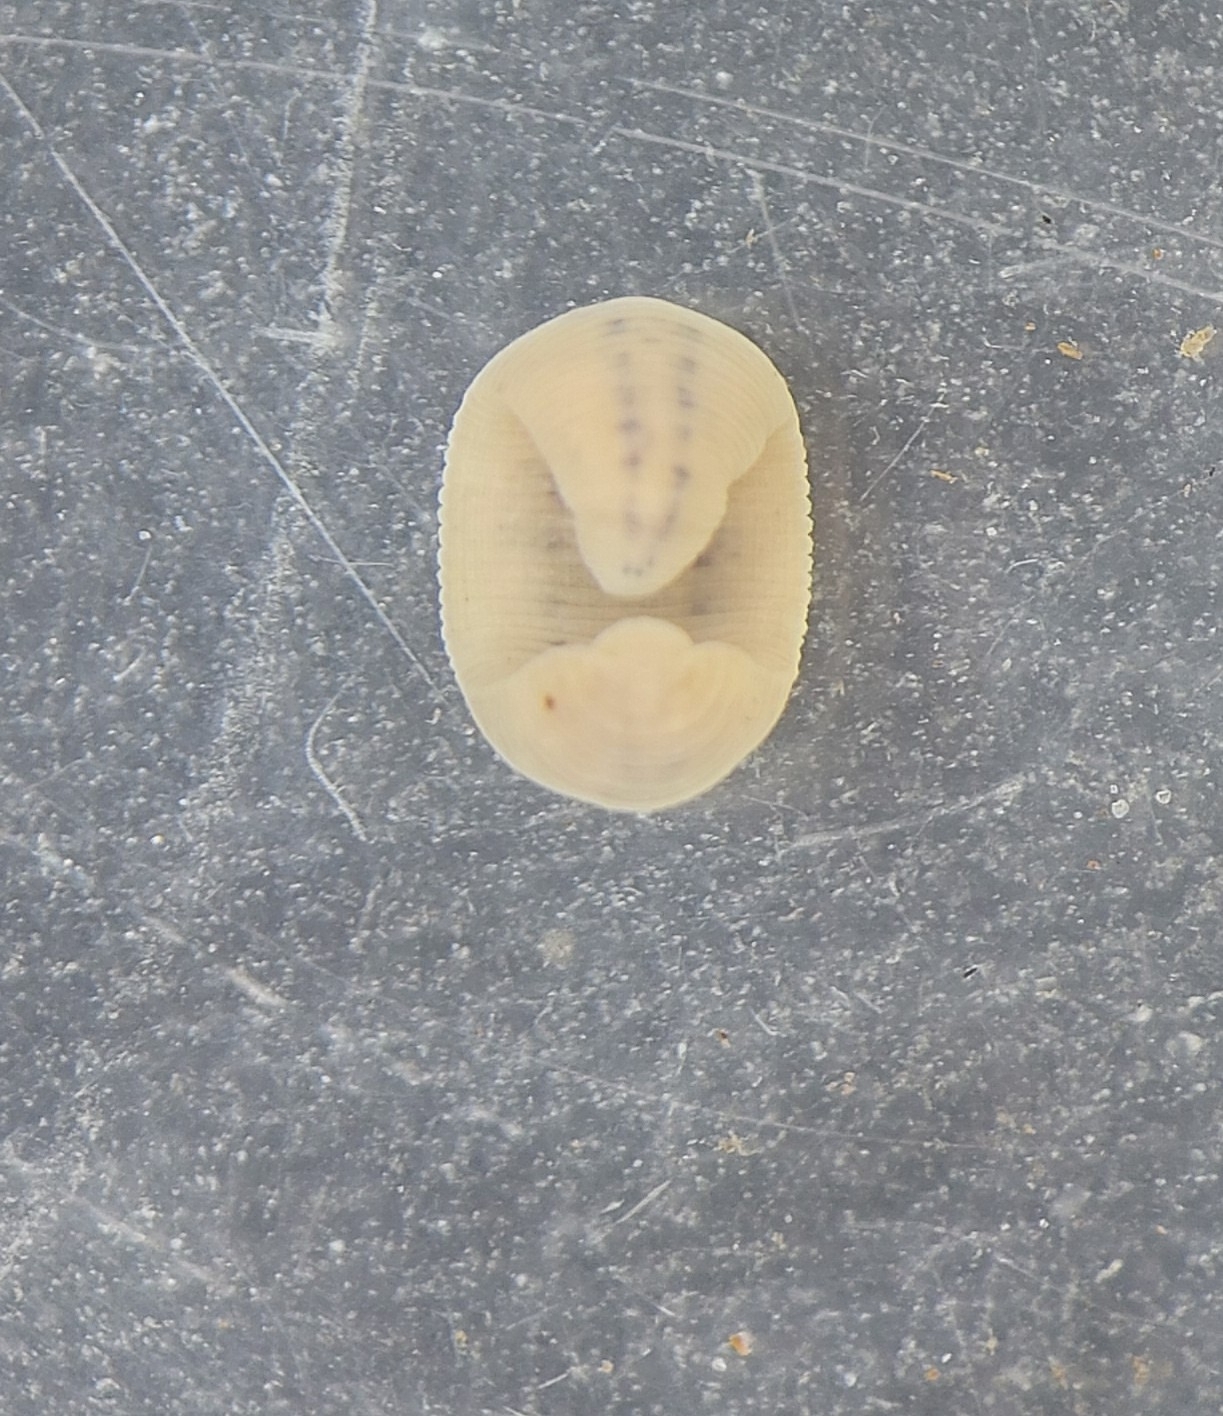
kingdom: Animalia
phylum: Annelida
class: Clitellata
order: Rhynchobdellida
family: Glossiphoniidae
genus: Glossiphonia
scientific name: Glossiphonia concolor
